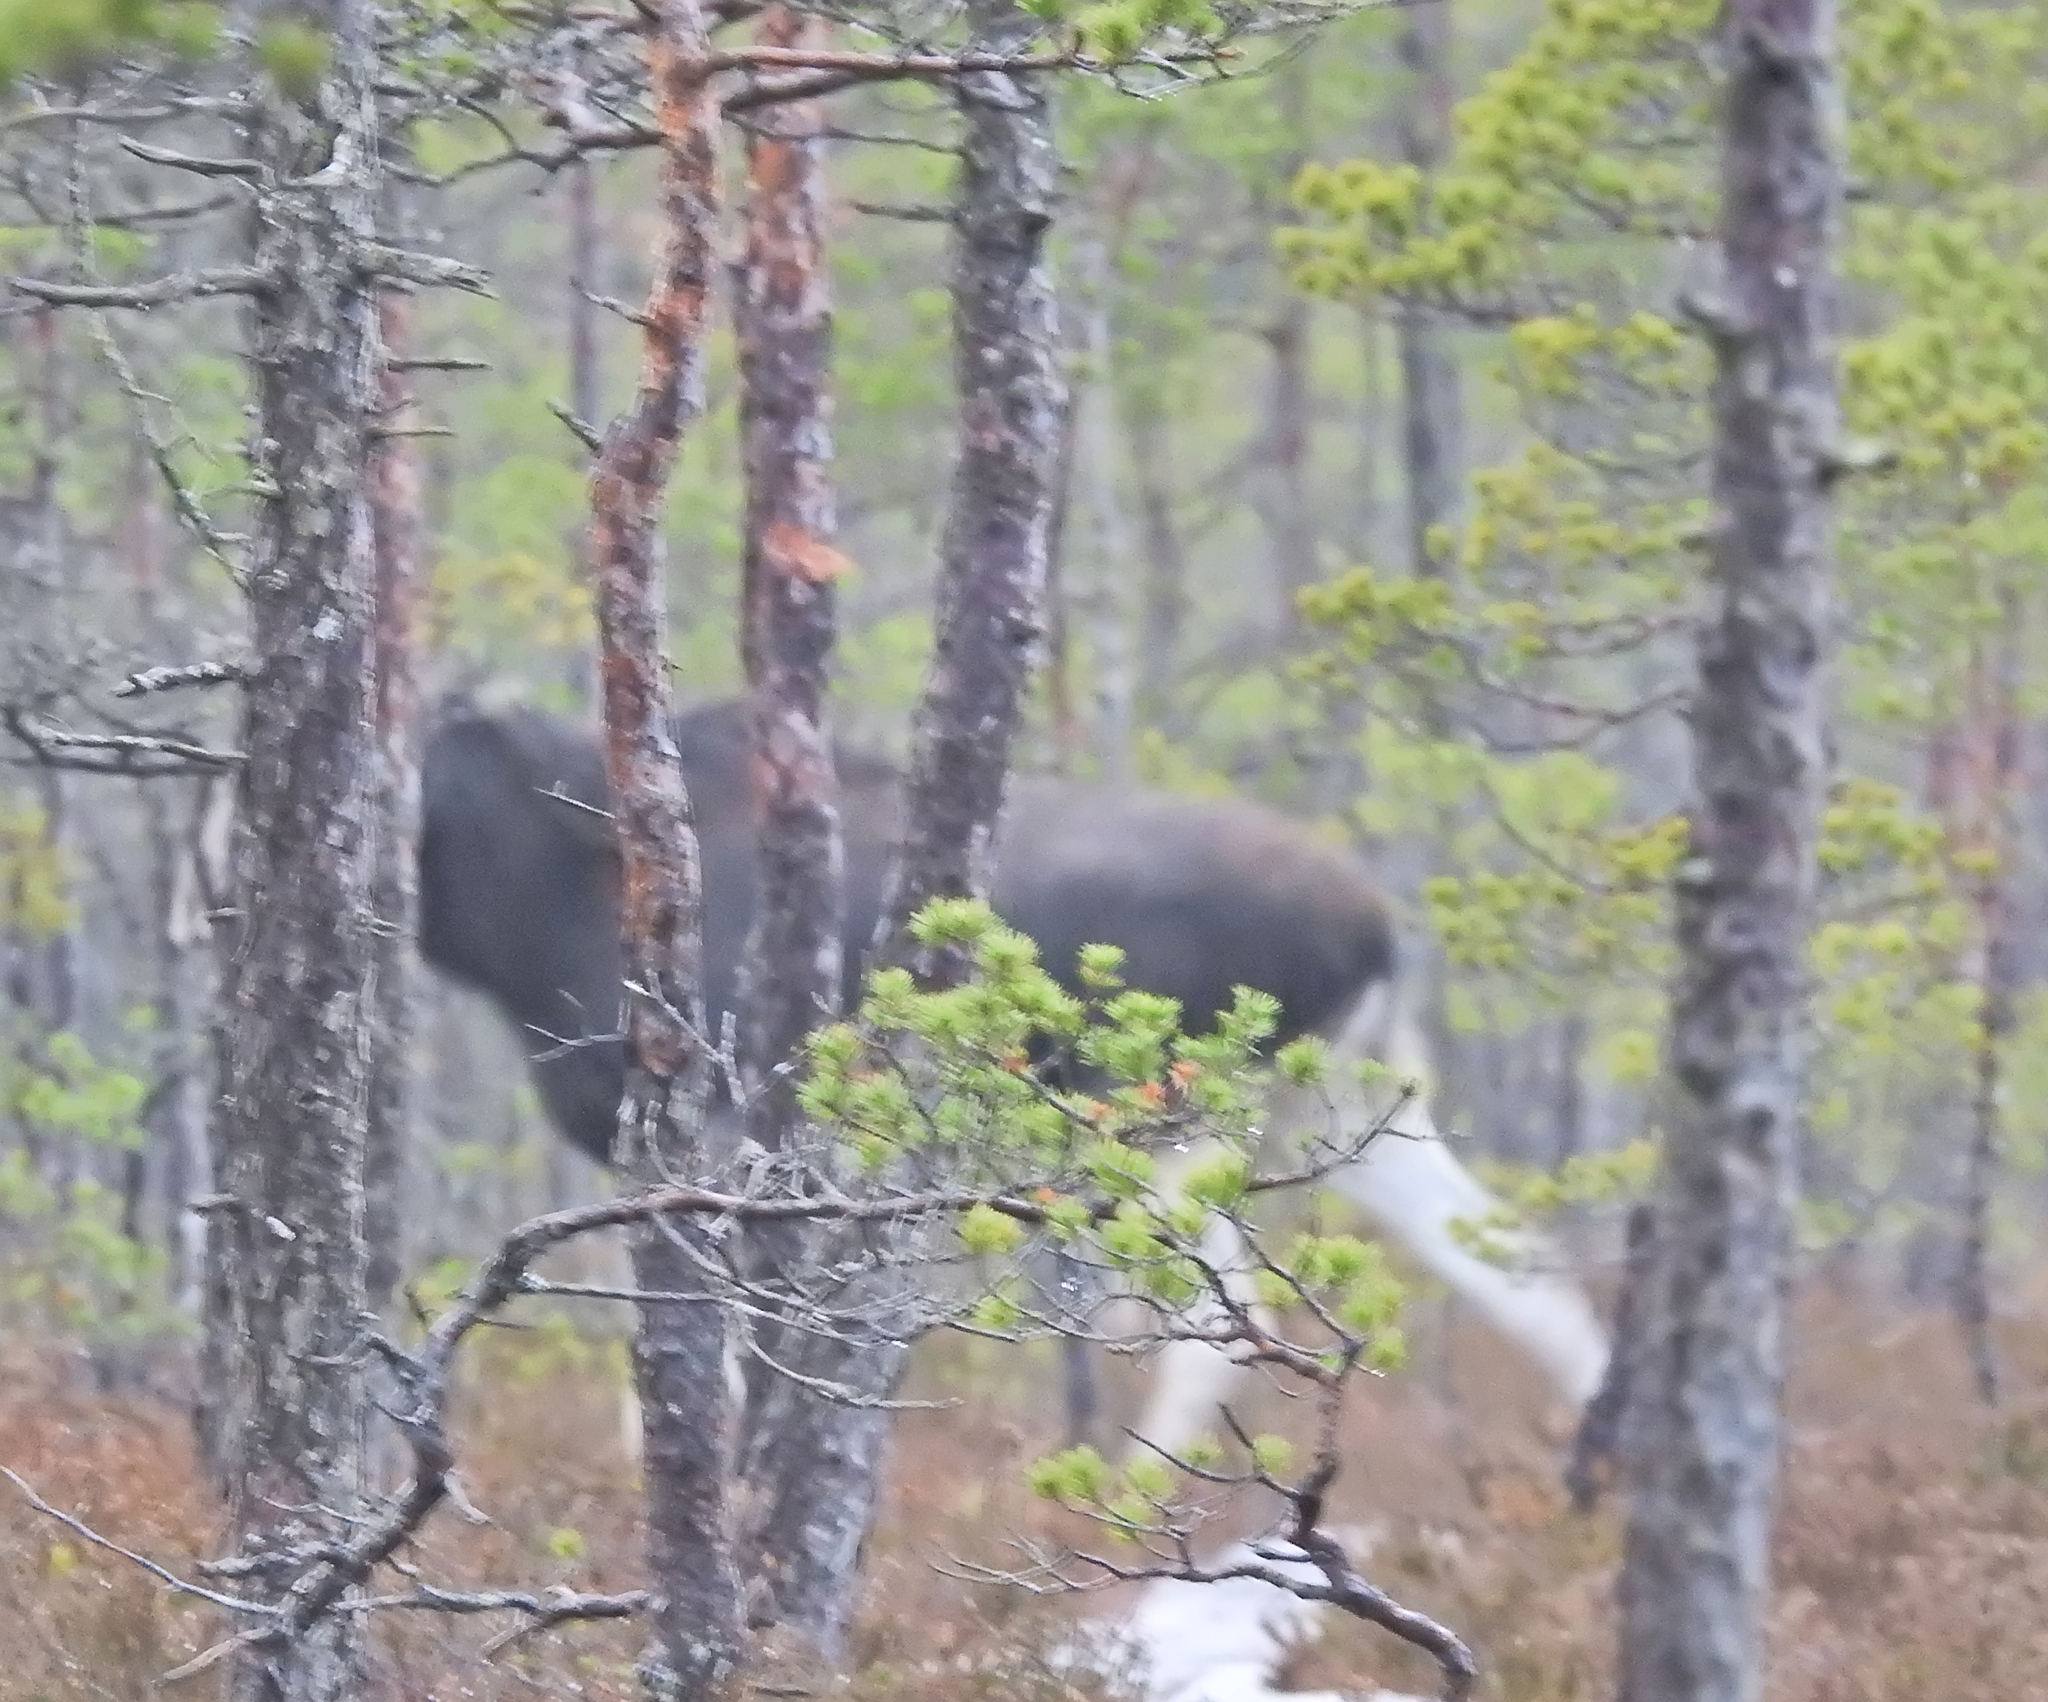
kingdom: Animalia
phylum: Chordata
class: Mammalia
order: Artiodactyla
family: Cervidae
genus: Alces
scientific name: Alces alces
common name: Moose
